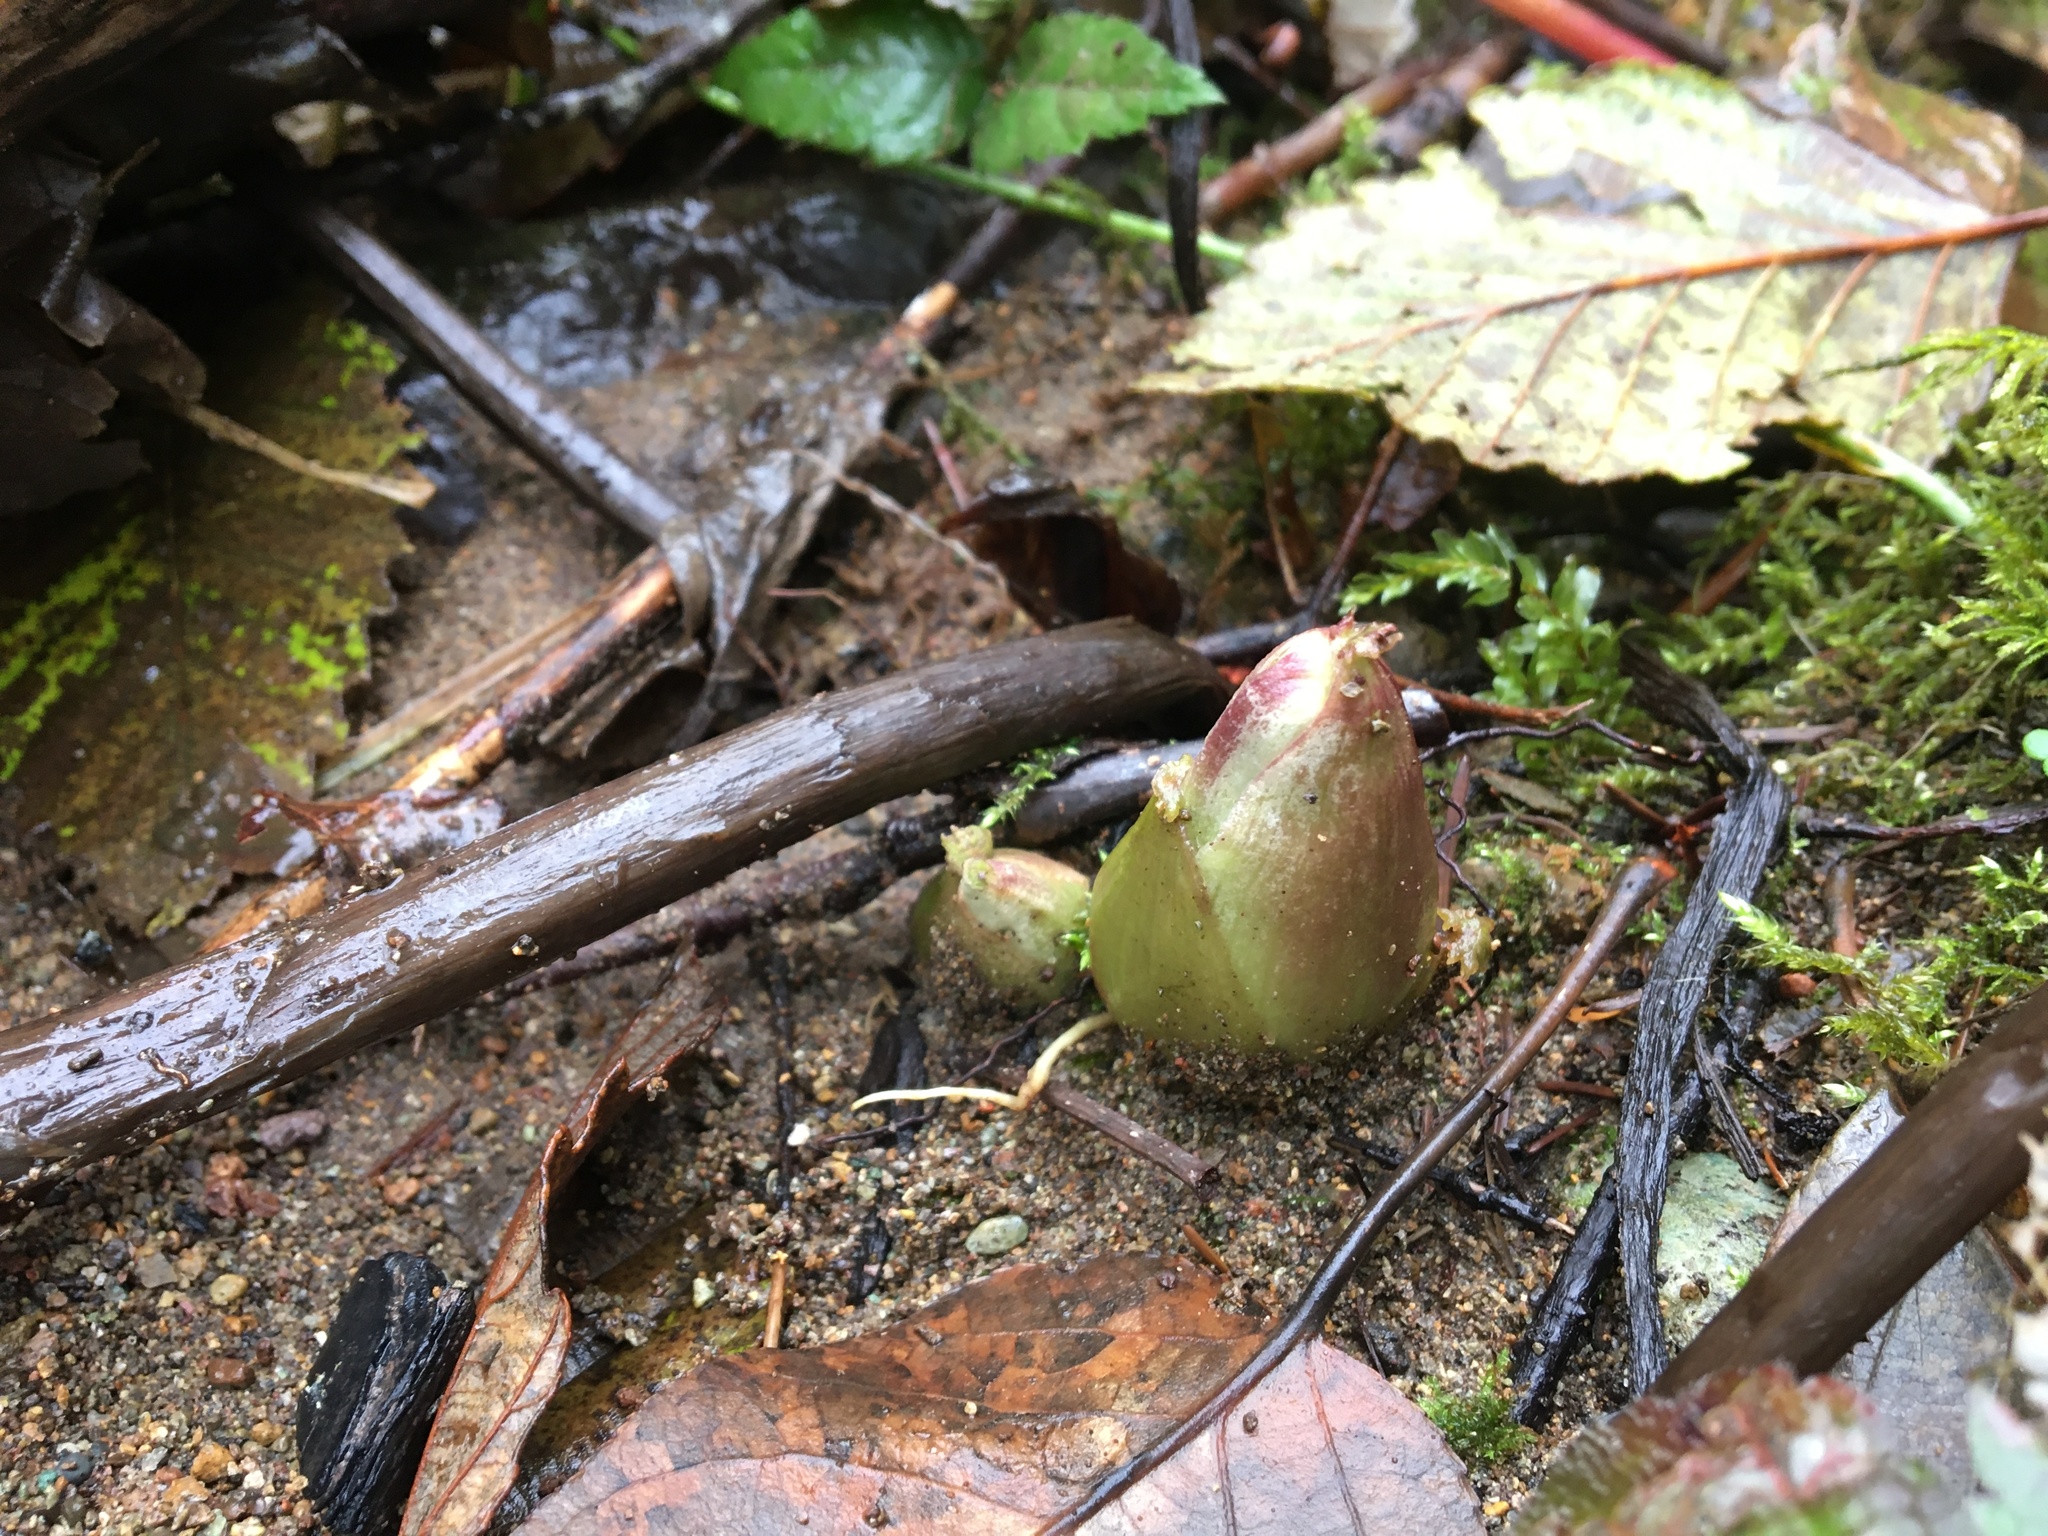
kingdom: Plantae
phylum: Tracheophyta
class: Magnoliopsida
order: Asterales
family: Asteraceae
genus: Petasites
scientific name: Petasites frigidus
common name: Arctic butterbur
